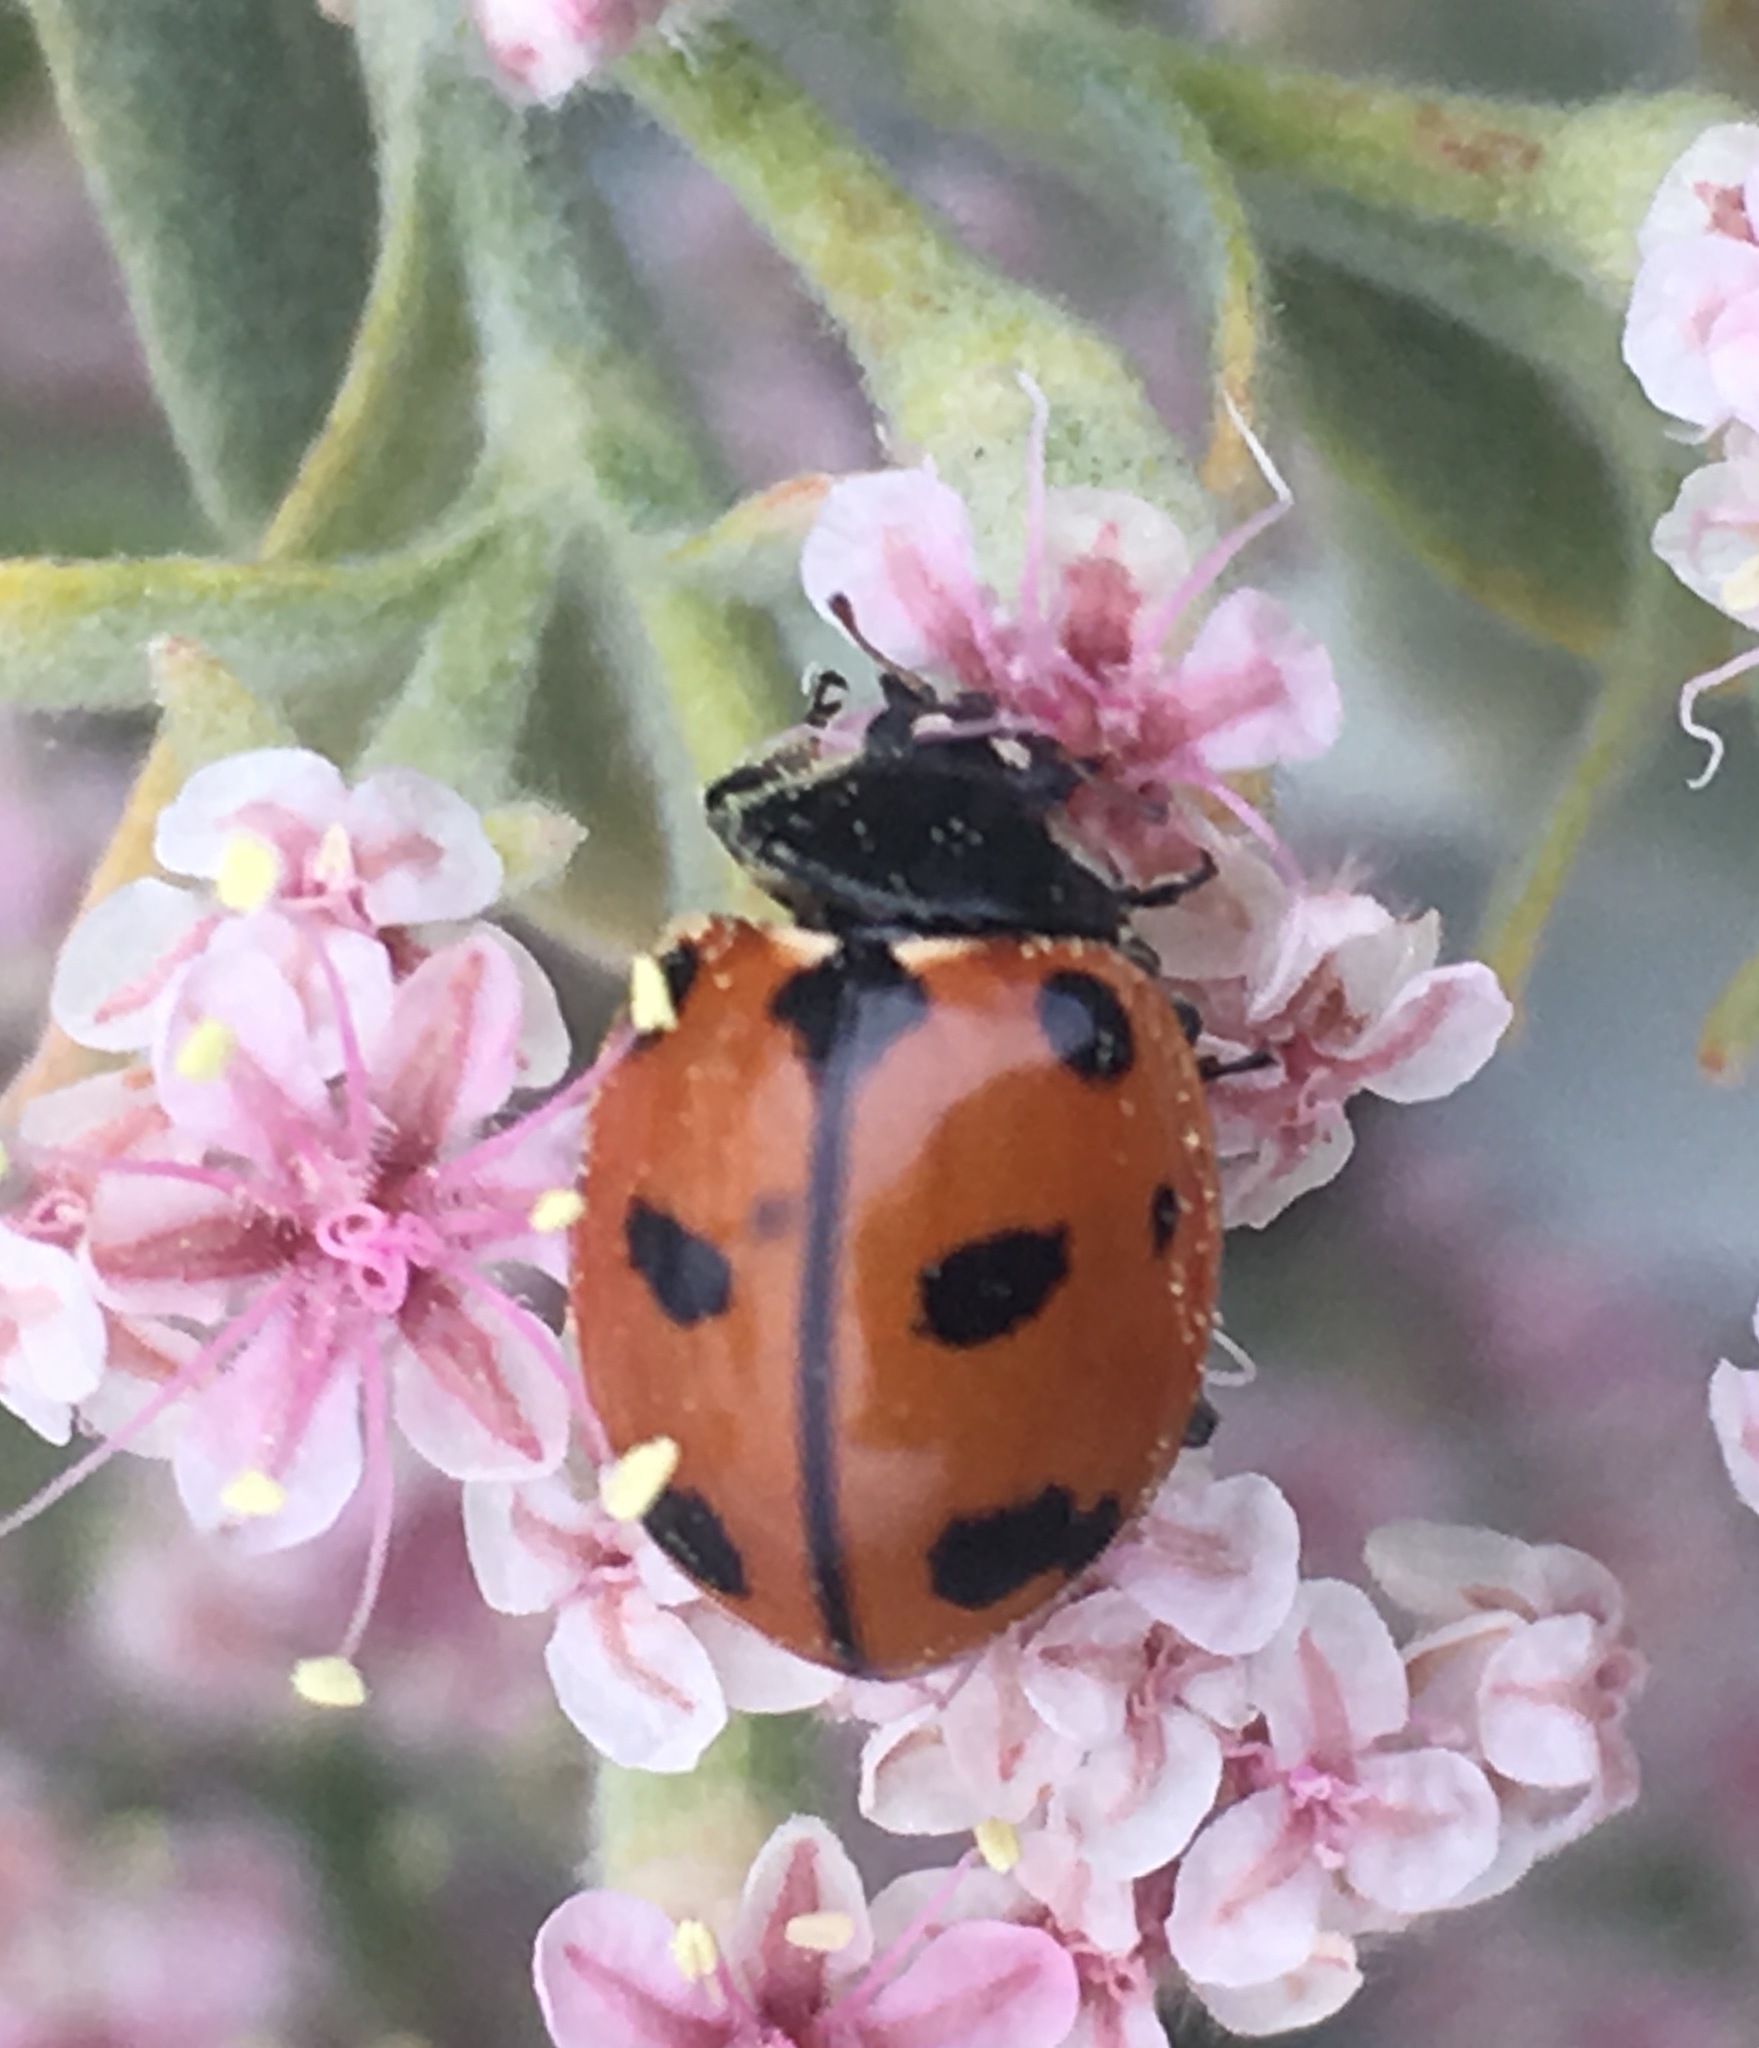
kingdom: Animalia
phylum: Arthropoda
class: Insecta
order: Coleoptera
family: Coccinellidae
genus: Coccinella
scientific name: Coccinella californica
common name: Lady beetle
